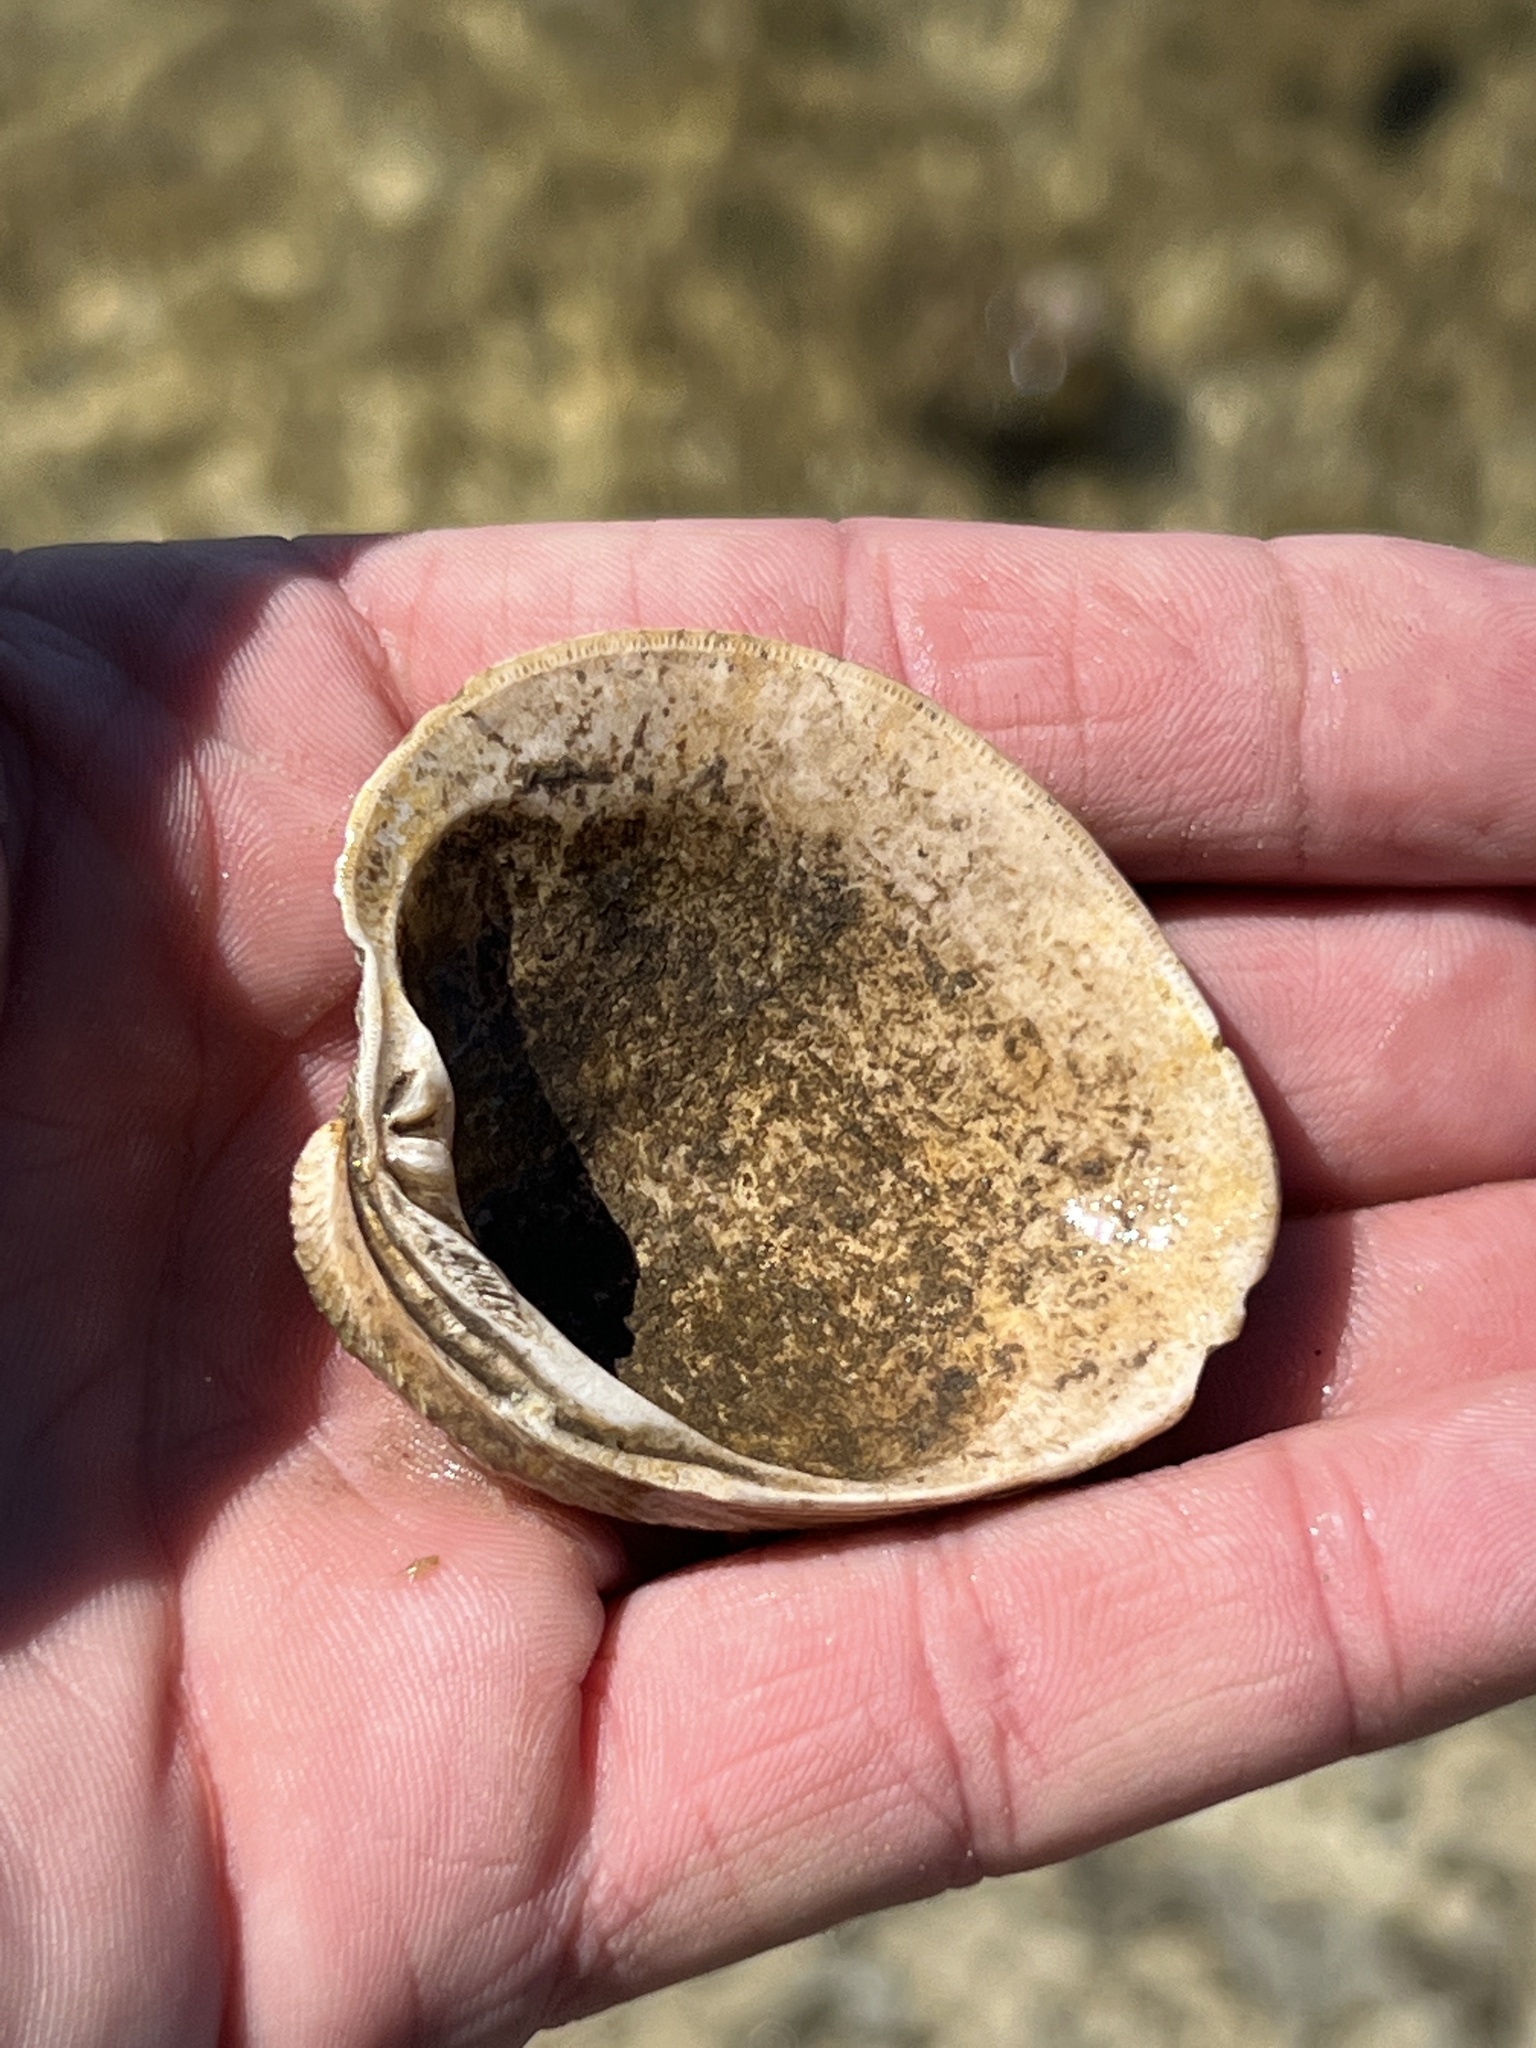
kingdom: Animalia
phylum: Mollusca
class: Bivalvia
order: Venerida
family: Veneridae
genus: Mercenaria
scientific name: Mercenaria texana
